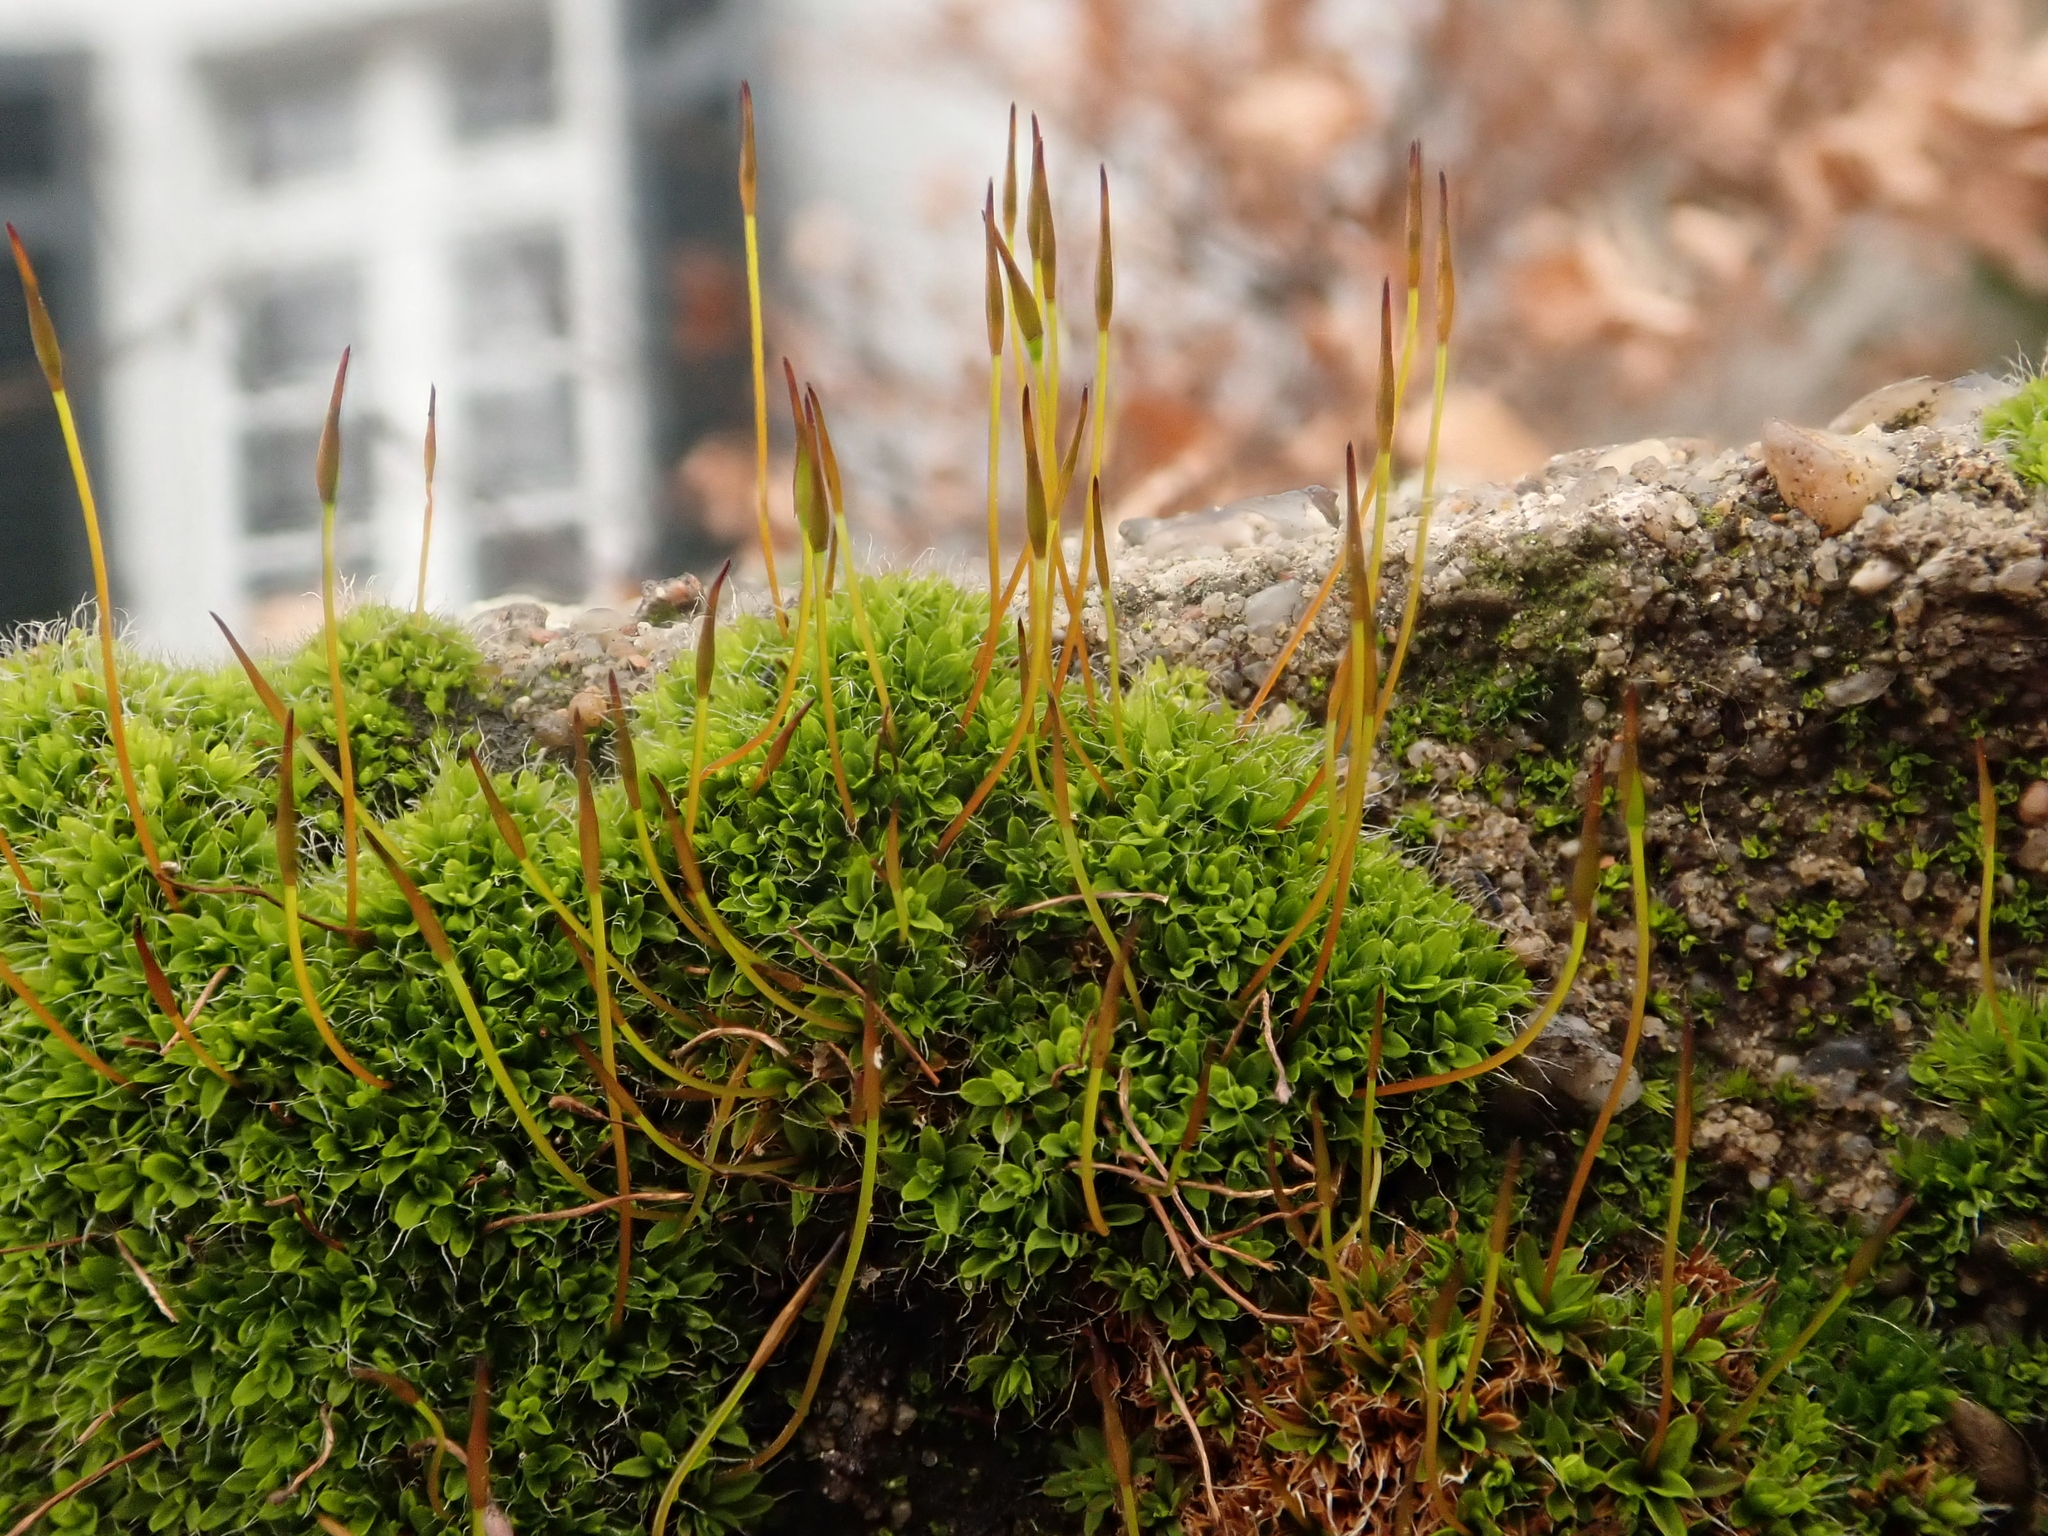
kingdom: Plantae
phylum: Bryophyta
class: Bryopsida
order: Pottiales
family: Pottiaceae
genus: Tortula
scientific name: Tortula muralis
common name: Wall screw-moss
